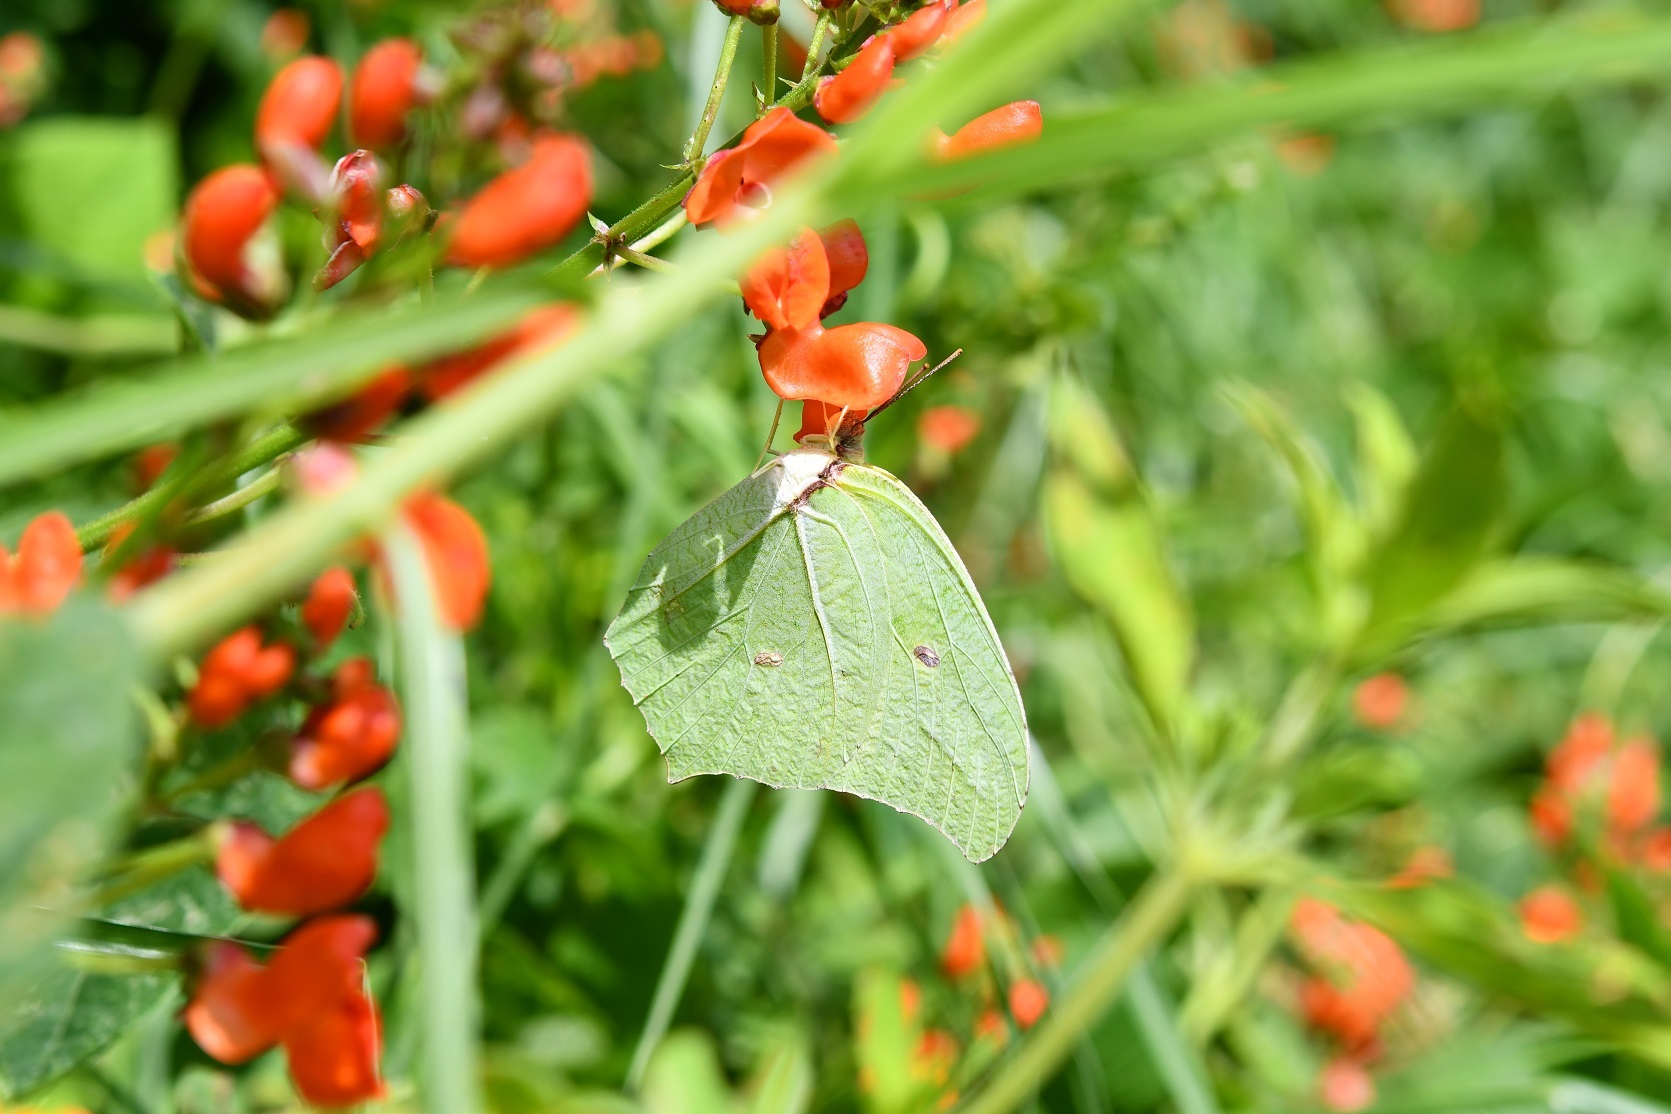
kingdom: Animalia
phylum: Arthropoda
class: Insecta
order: Lepidoptera
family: Pieridae
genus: Anteos
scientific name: Anteos maerula
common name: Angled sulphur
